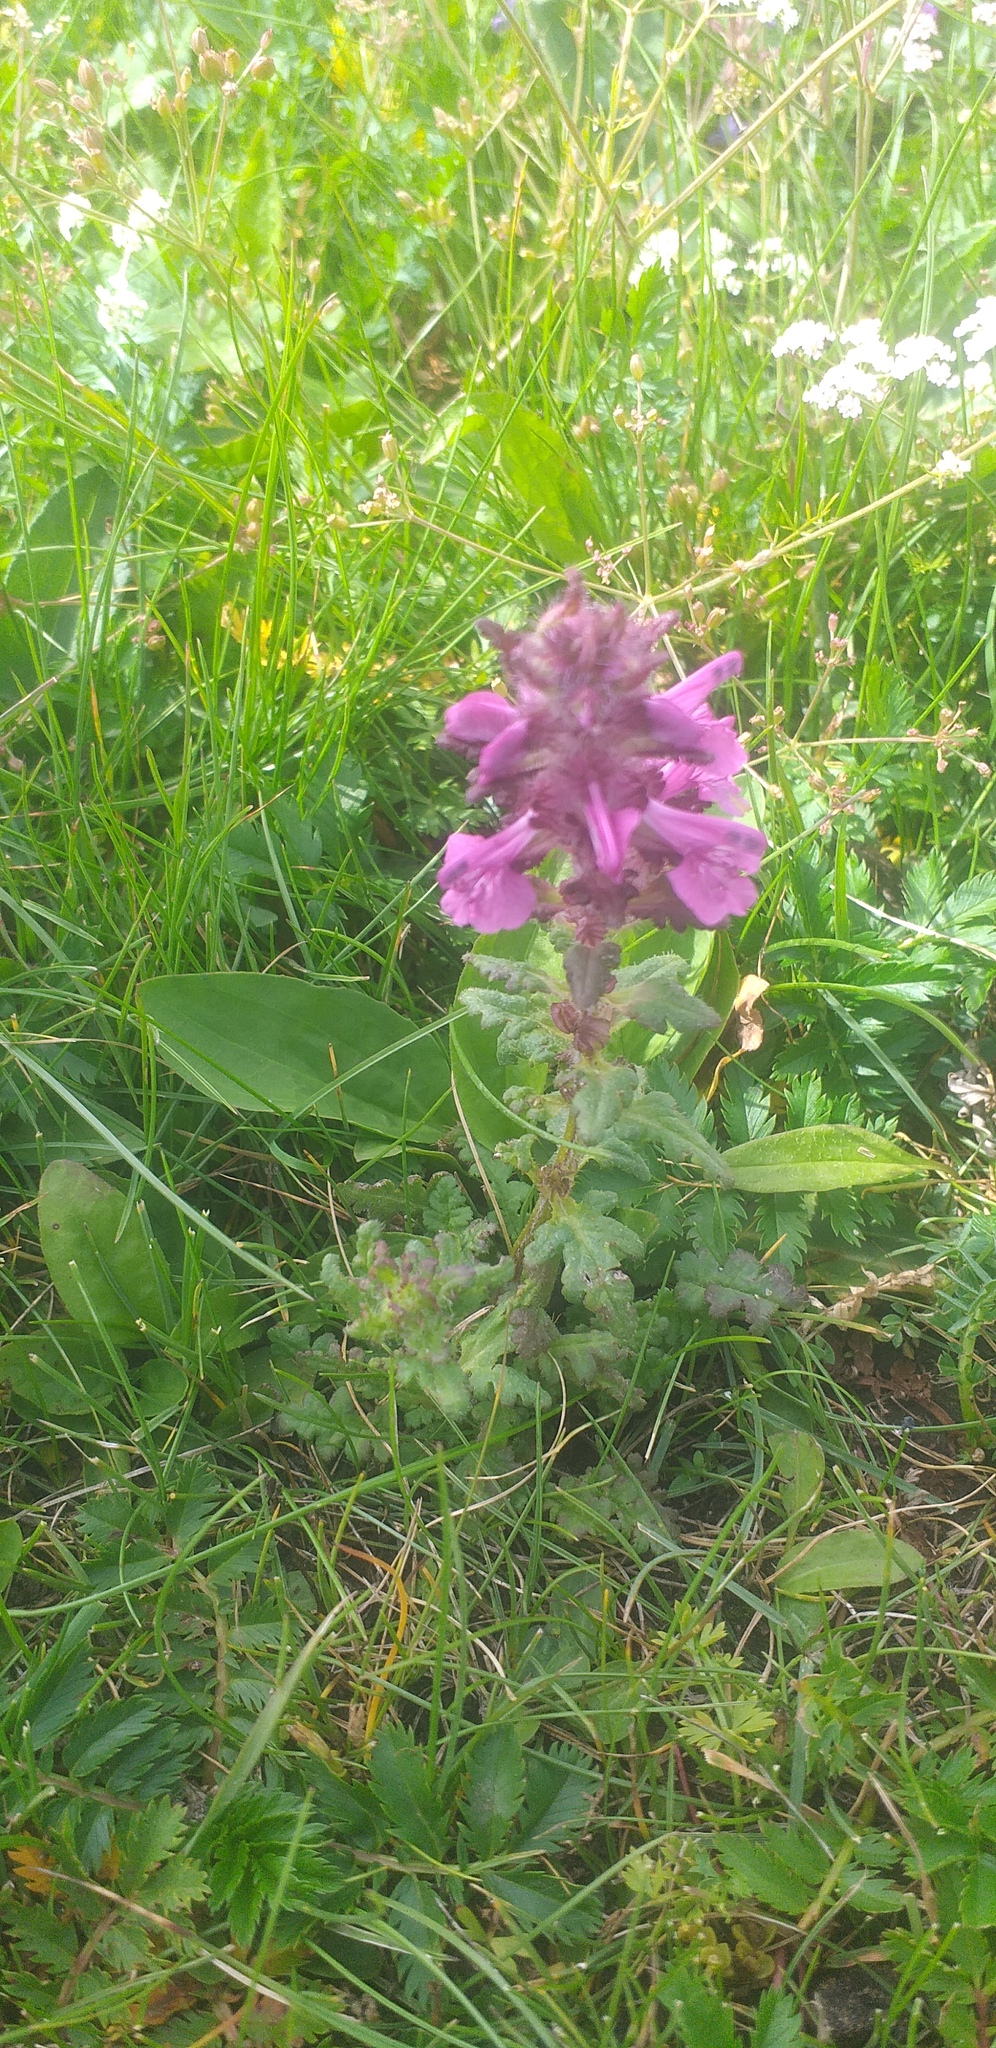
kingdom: Plantae
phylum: Tracheophyta
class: Magnoliopsida
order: Lamiales
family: Orobanchaceae
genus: Pedicularis
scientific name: Pedicularis rubens
